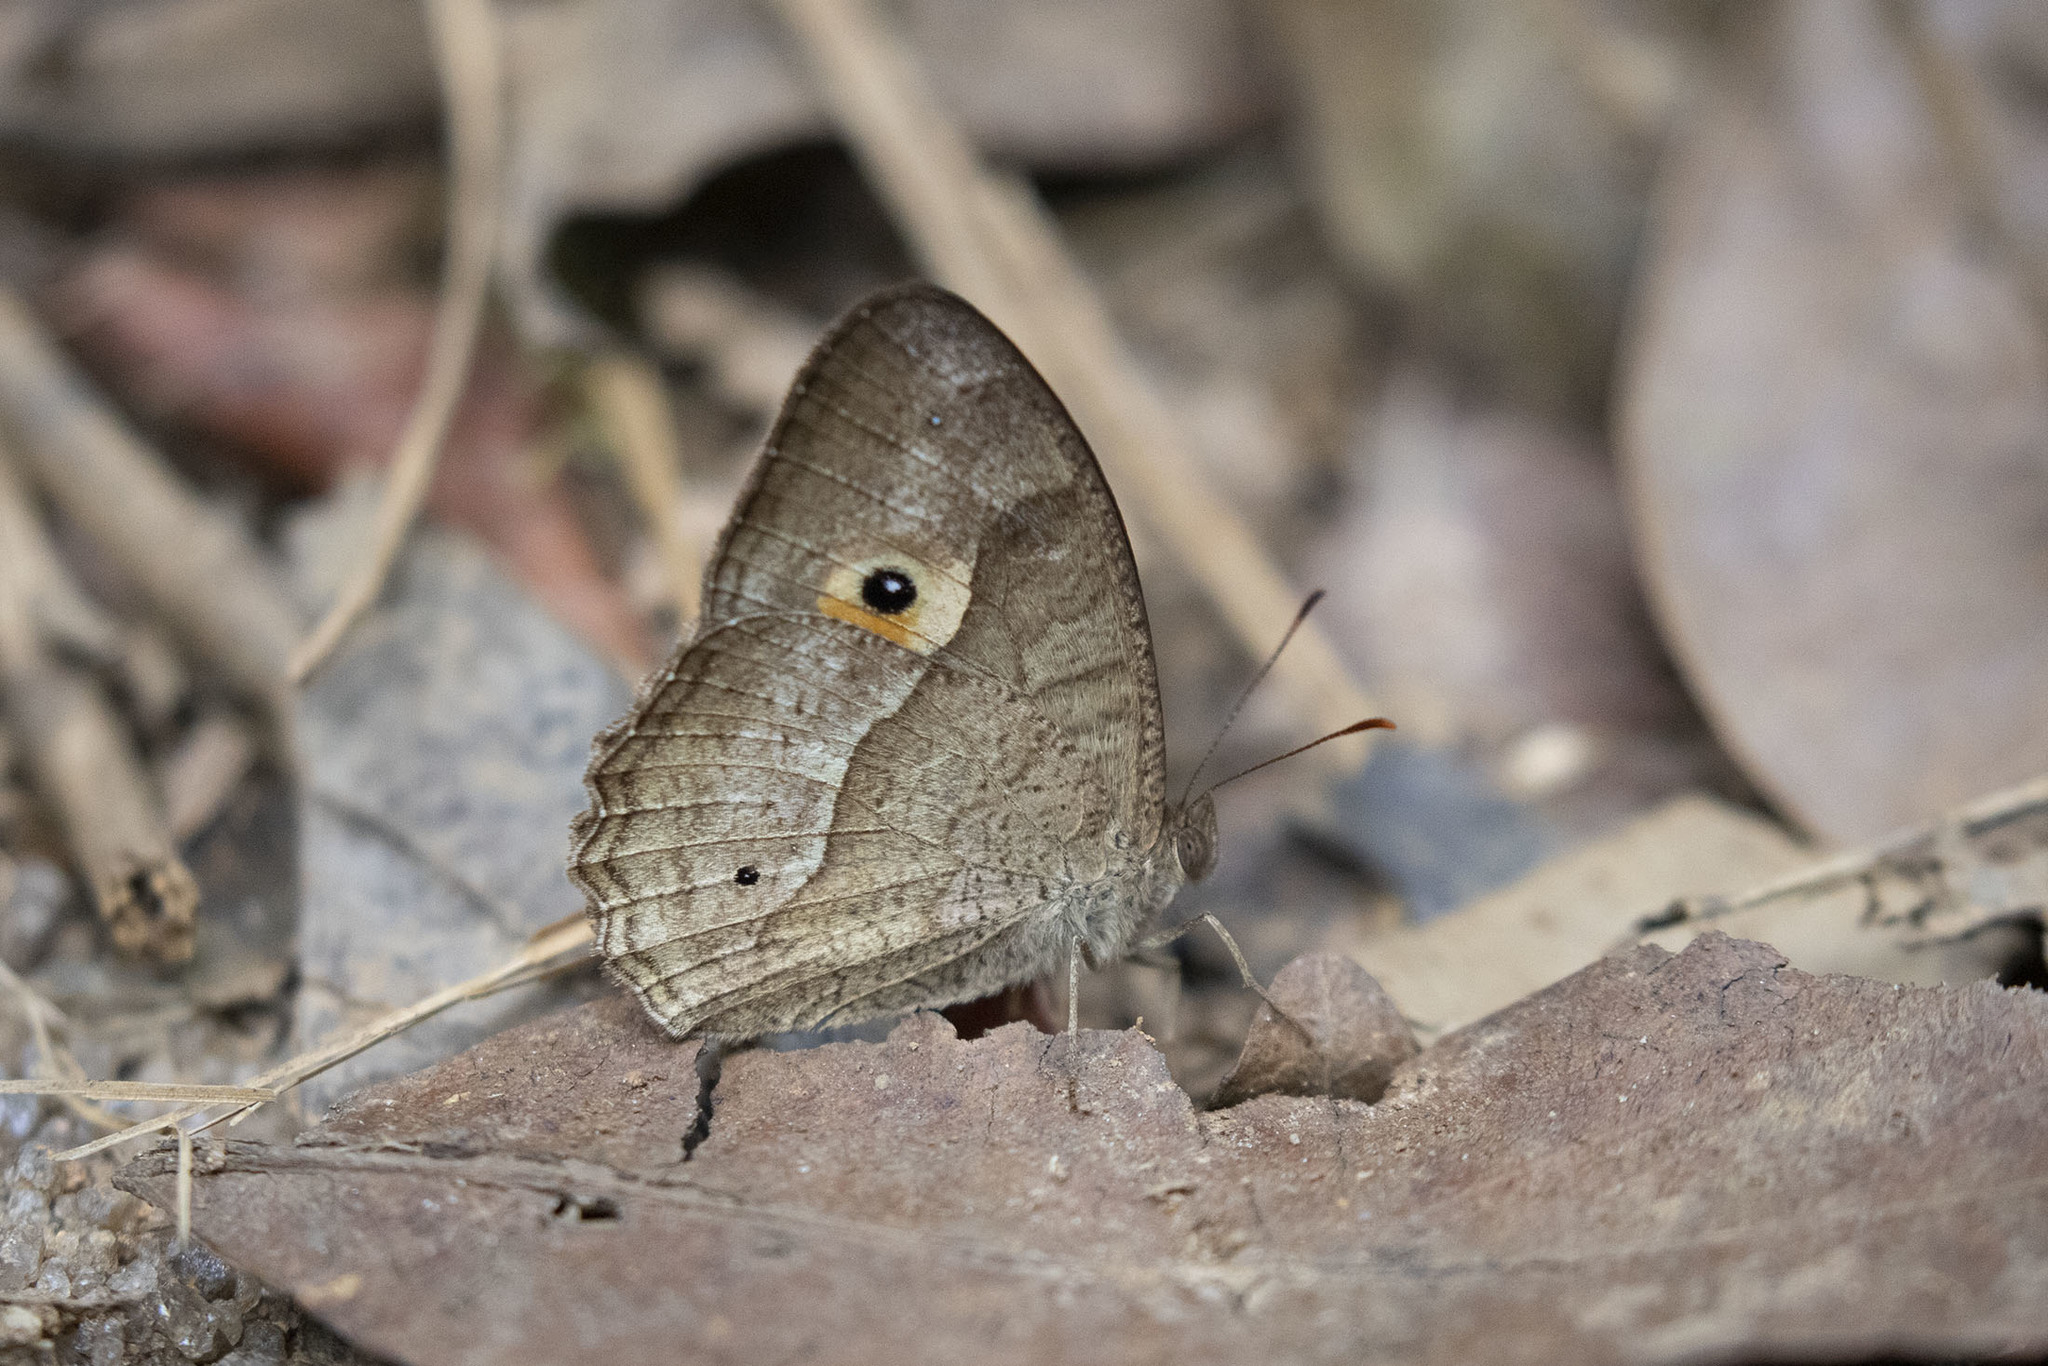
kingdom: Animalia
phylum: Arthropoda
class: Insecta
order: Lepidoptera
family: Nymphalidae
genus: Heteropsis
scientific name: Heteropsis iboina
